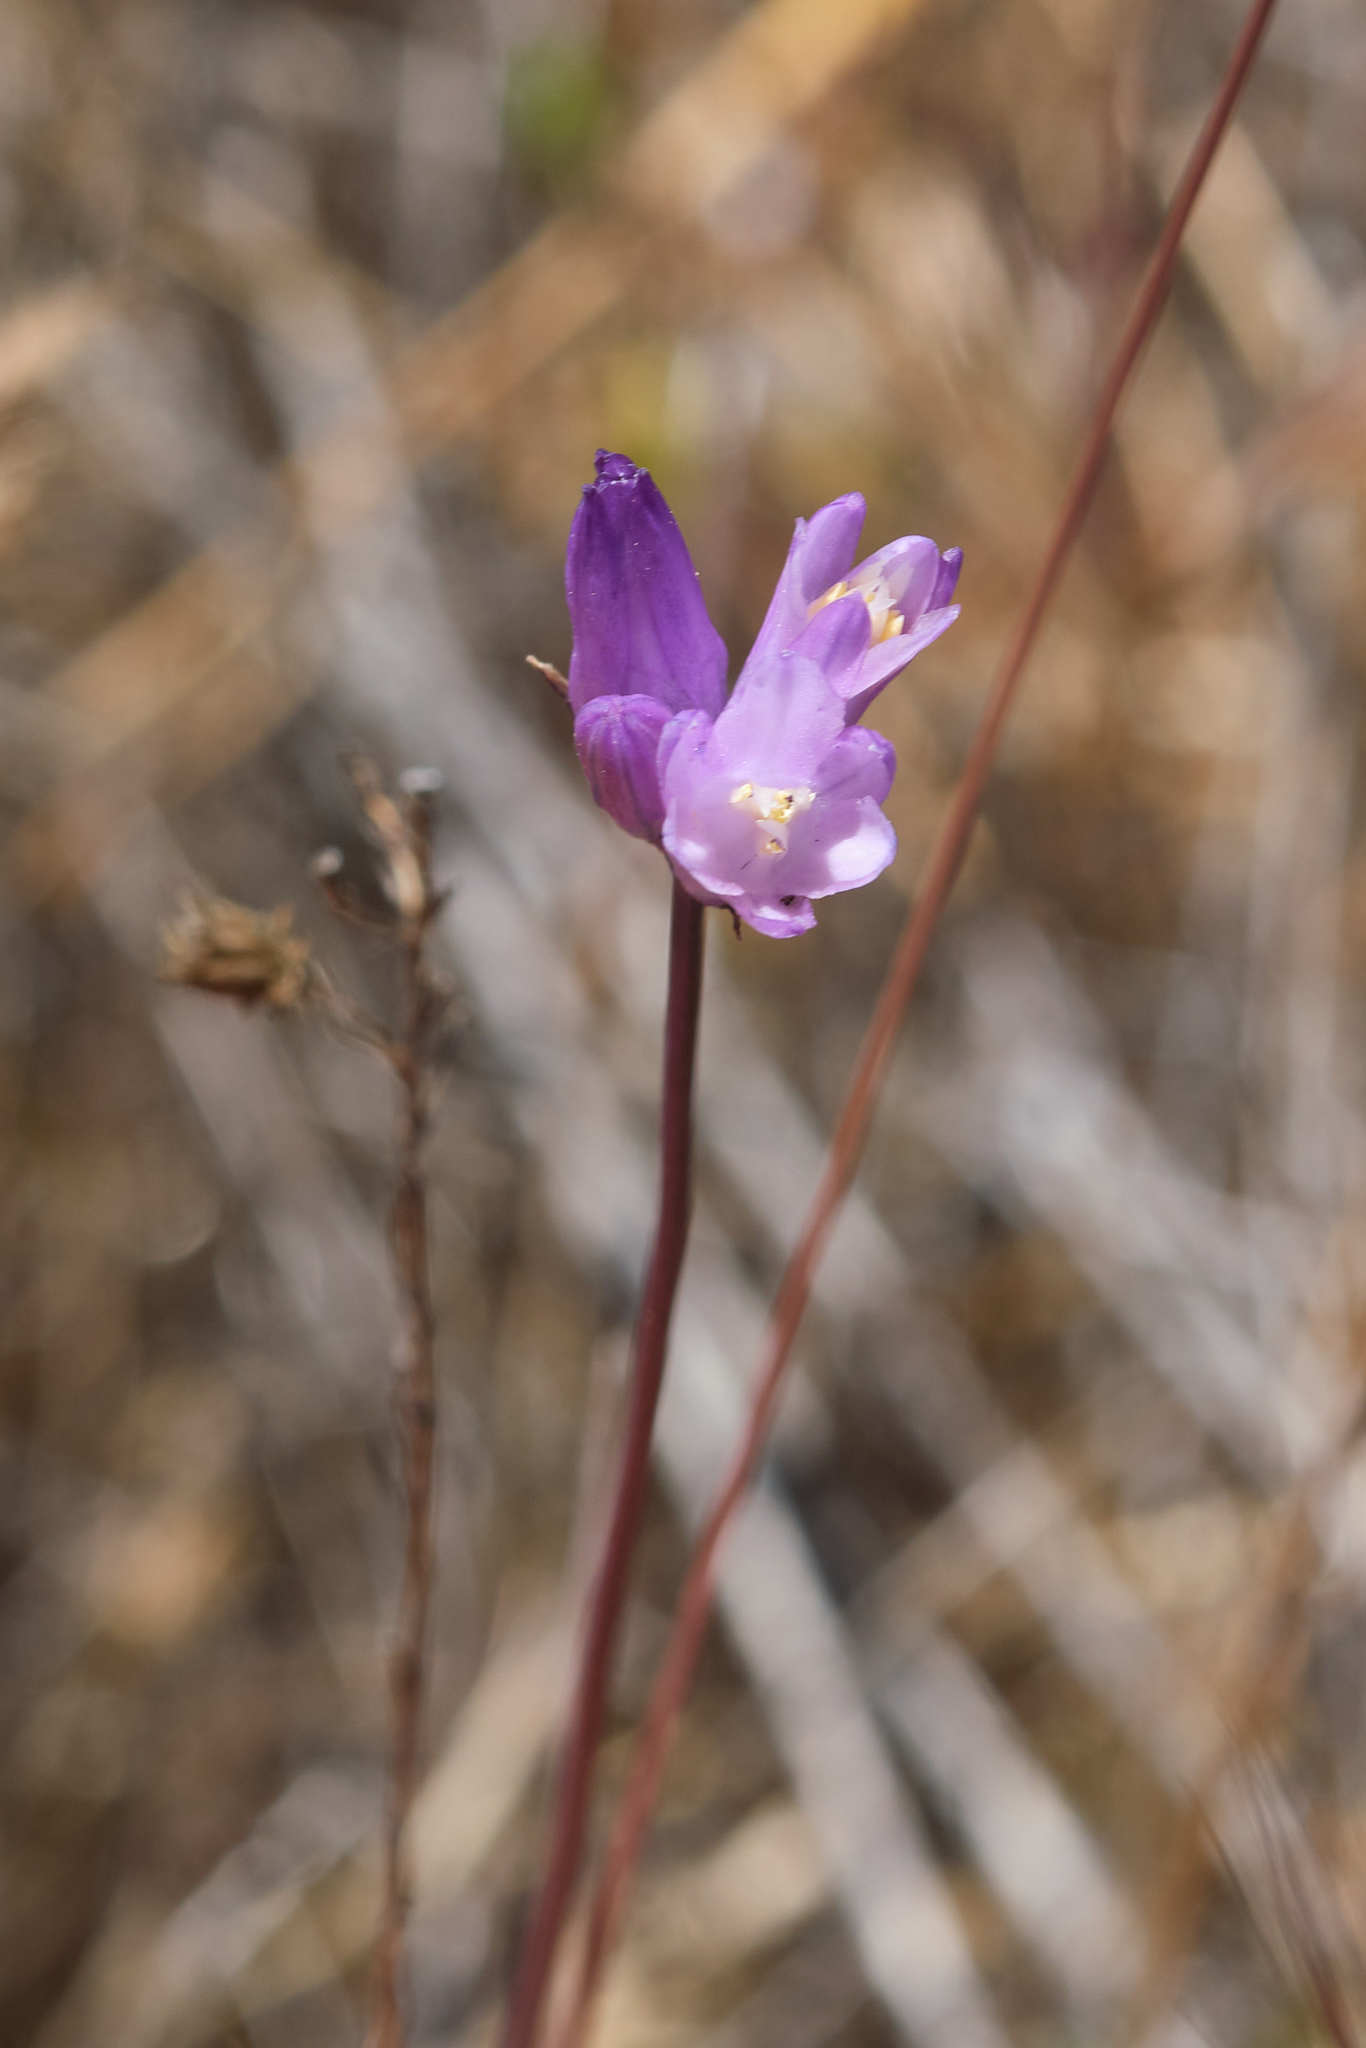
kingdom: Plantae
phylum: Tracheophyta
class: Liliopsida
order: Asparagales
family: Asparagaceae
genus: Dipterostemon
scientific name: Dipterostemon capitatus
